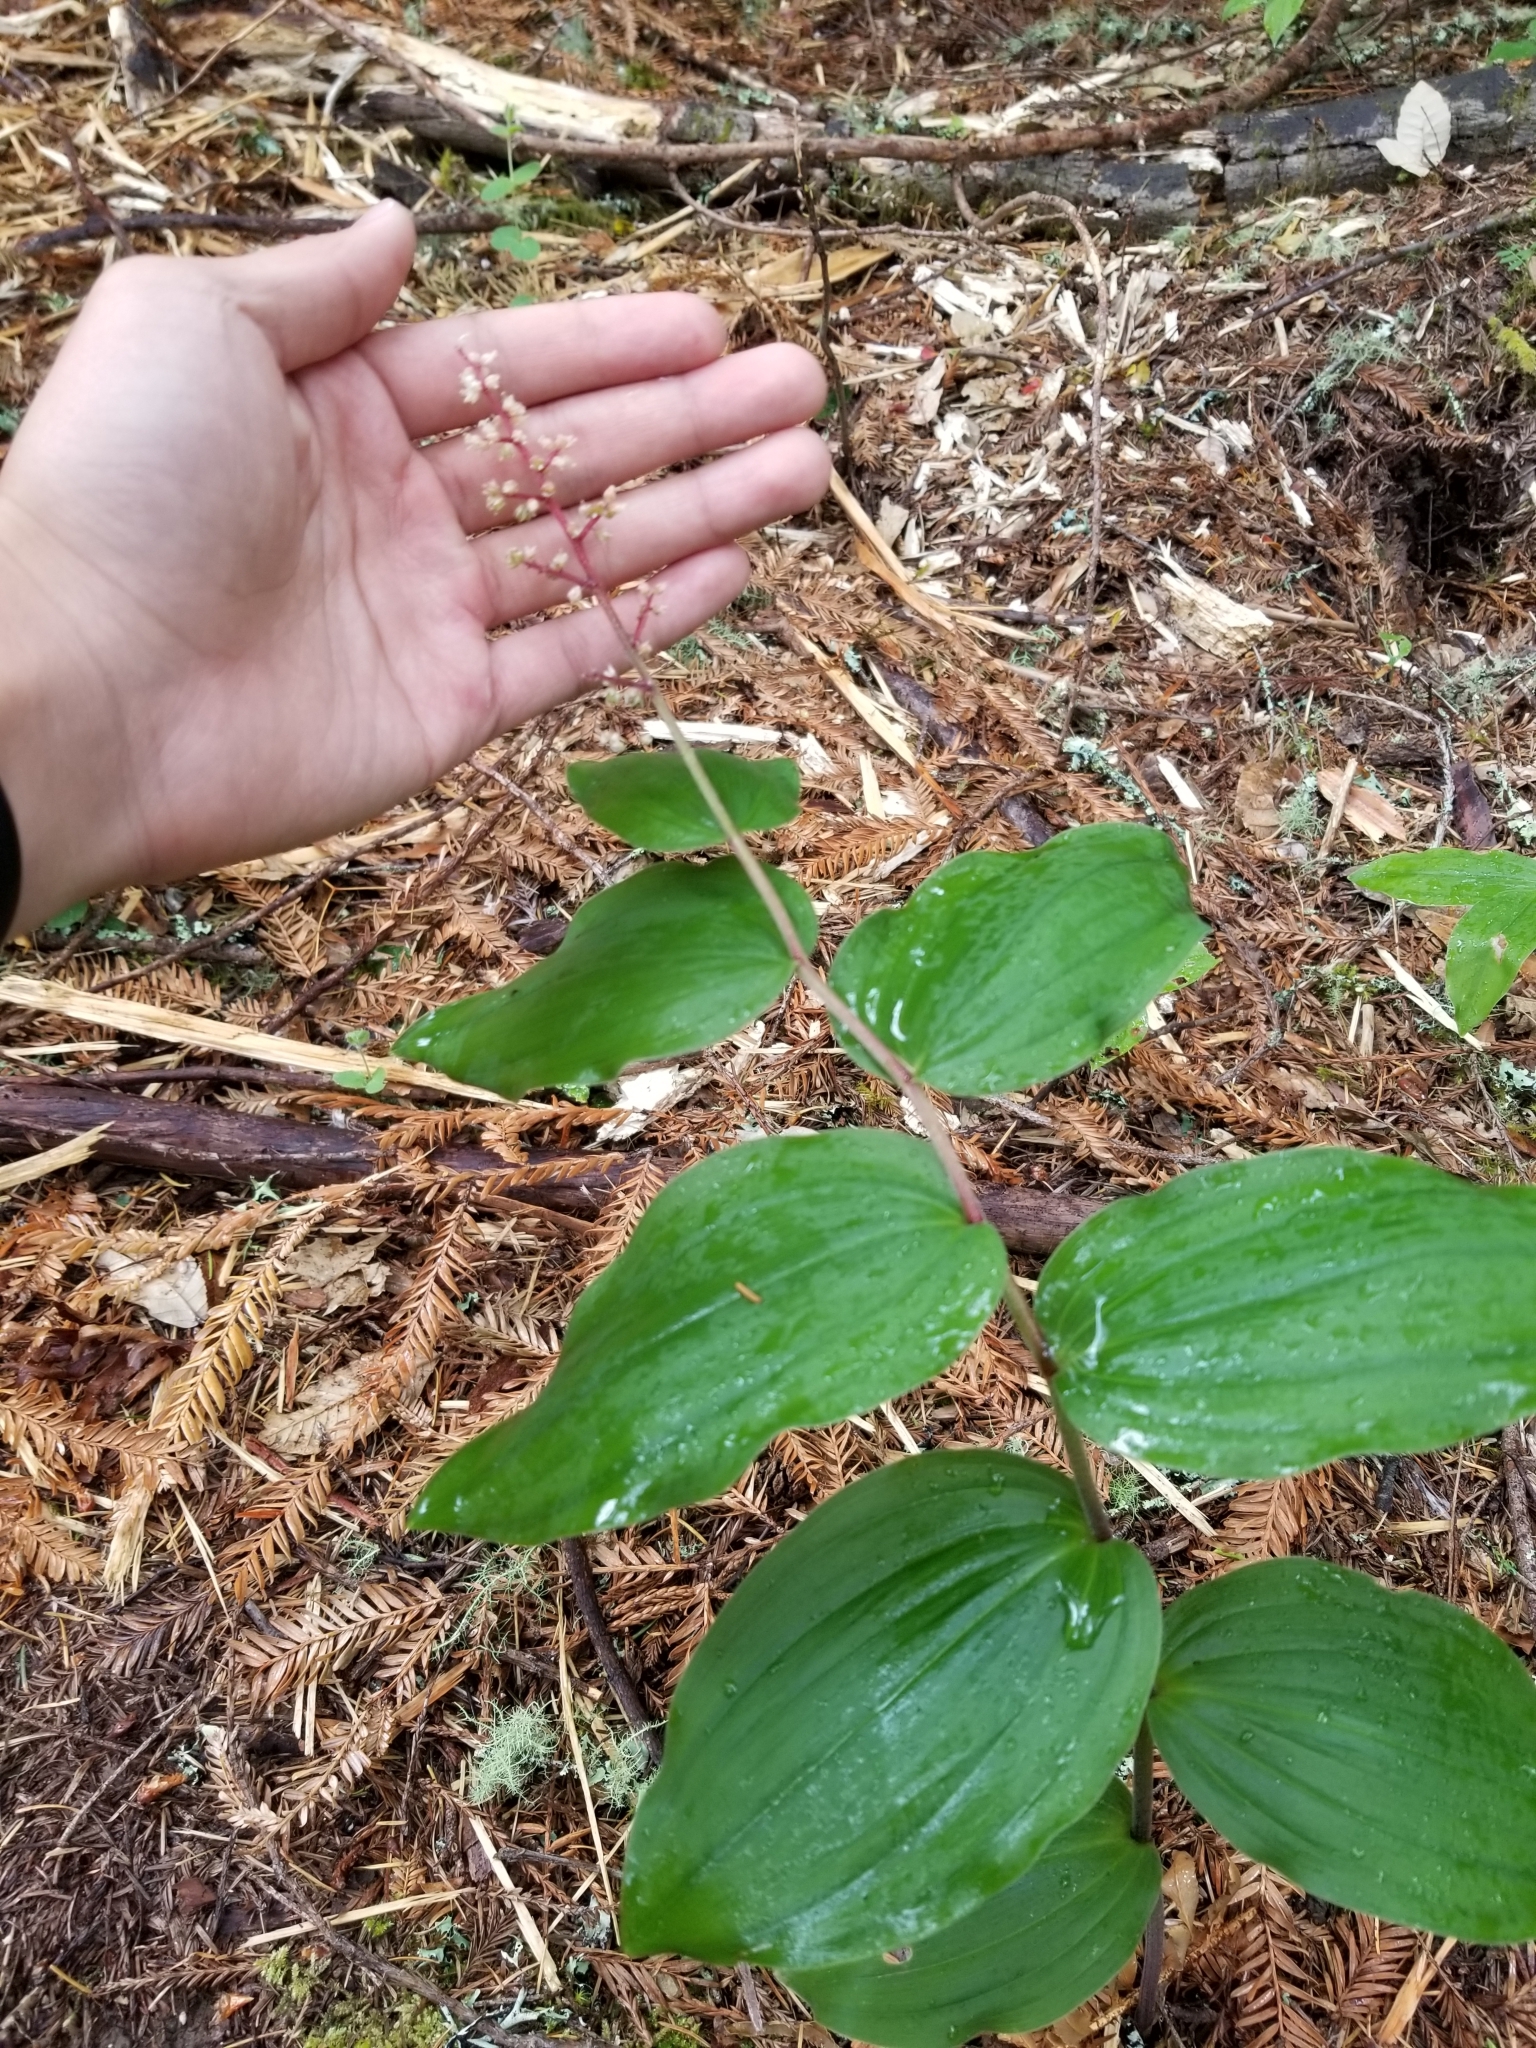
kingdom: Plantae
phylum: Tracheophyta
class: Liliopsida
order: Asparagales
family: Asparagaceae
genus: Maianthemum
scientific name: Maianthemum racemosum
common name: False spikenard
